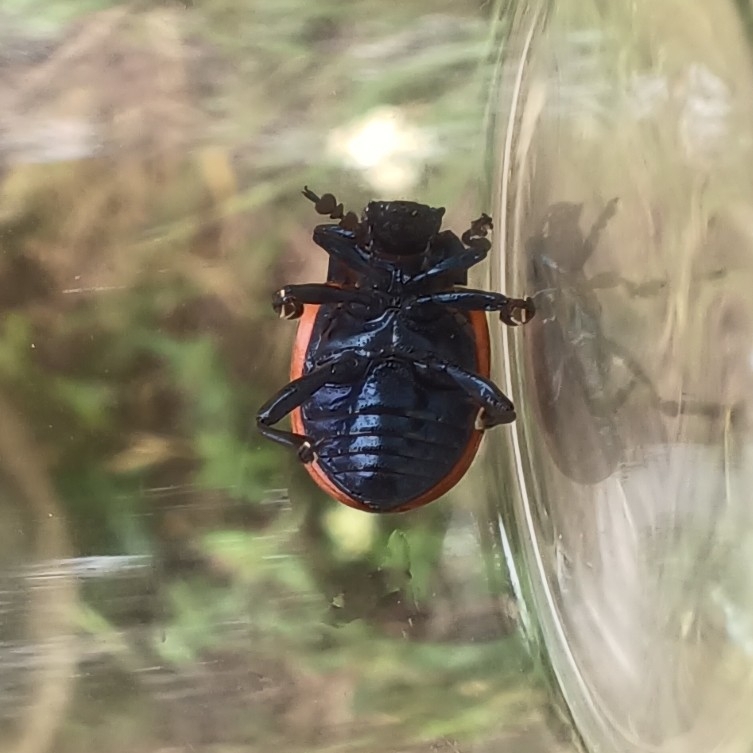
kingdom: Animalia
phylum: Arthropoda
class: Insecta
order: Coleoptera
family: Chrysomelidae
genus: Chrysolina
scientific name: Chrysolina sanguinolenta
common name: Toadflax leaf beetle
